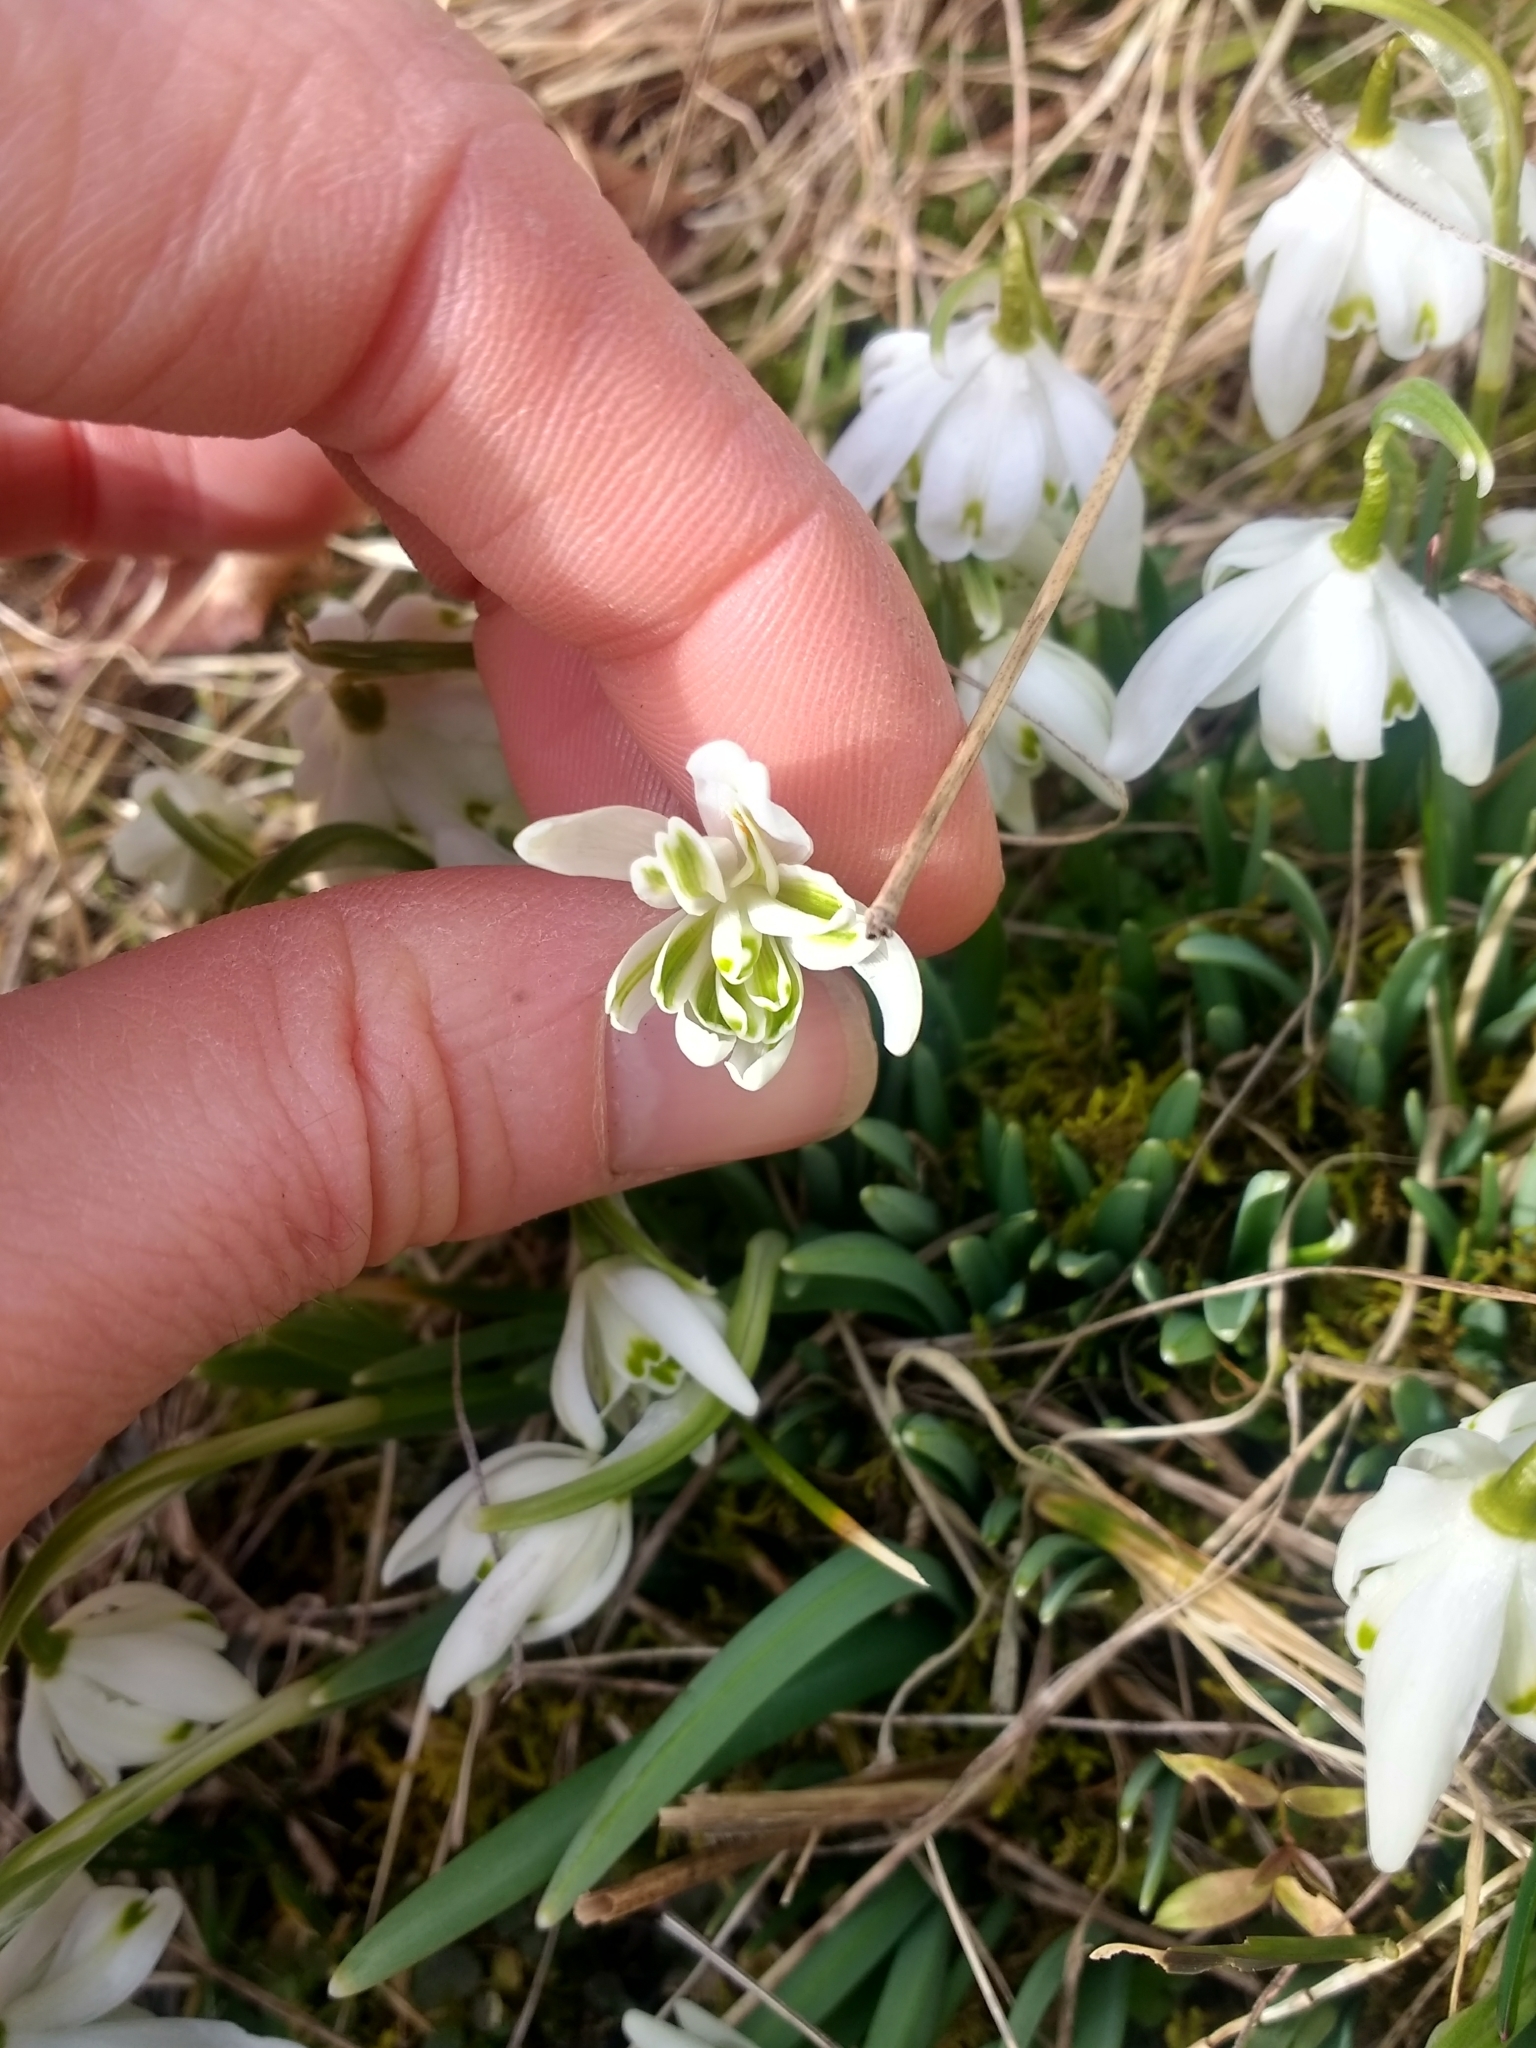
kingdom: Plantae
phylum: Tracheophyta
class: Liliopsida
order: Asparagales
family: Amaryllidaceae
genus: Galanthus
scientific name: Galanthus nivalis
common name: Snowdrop
